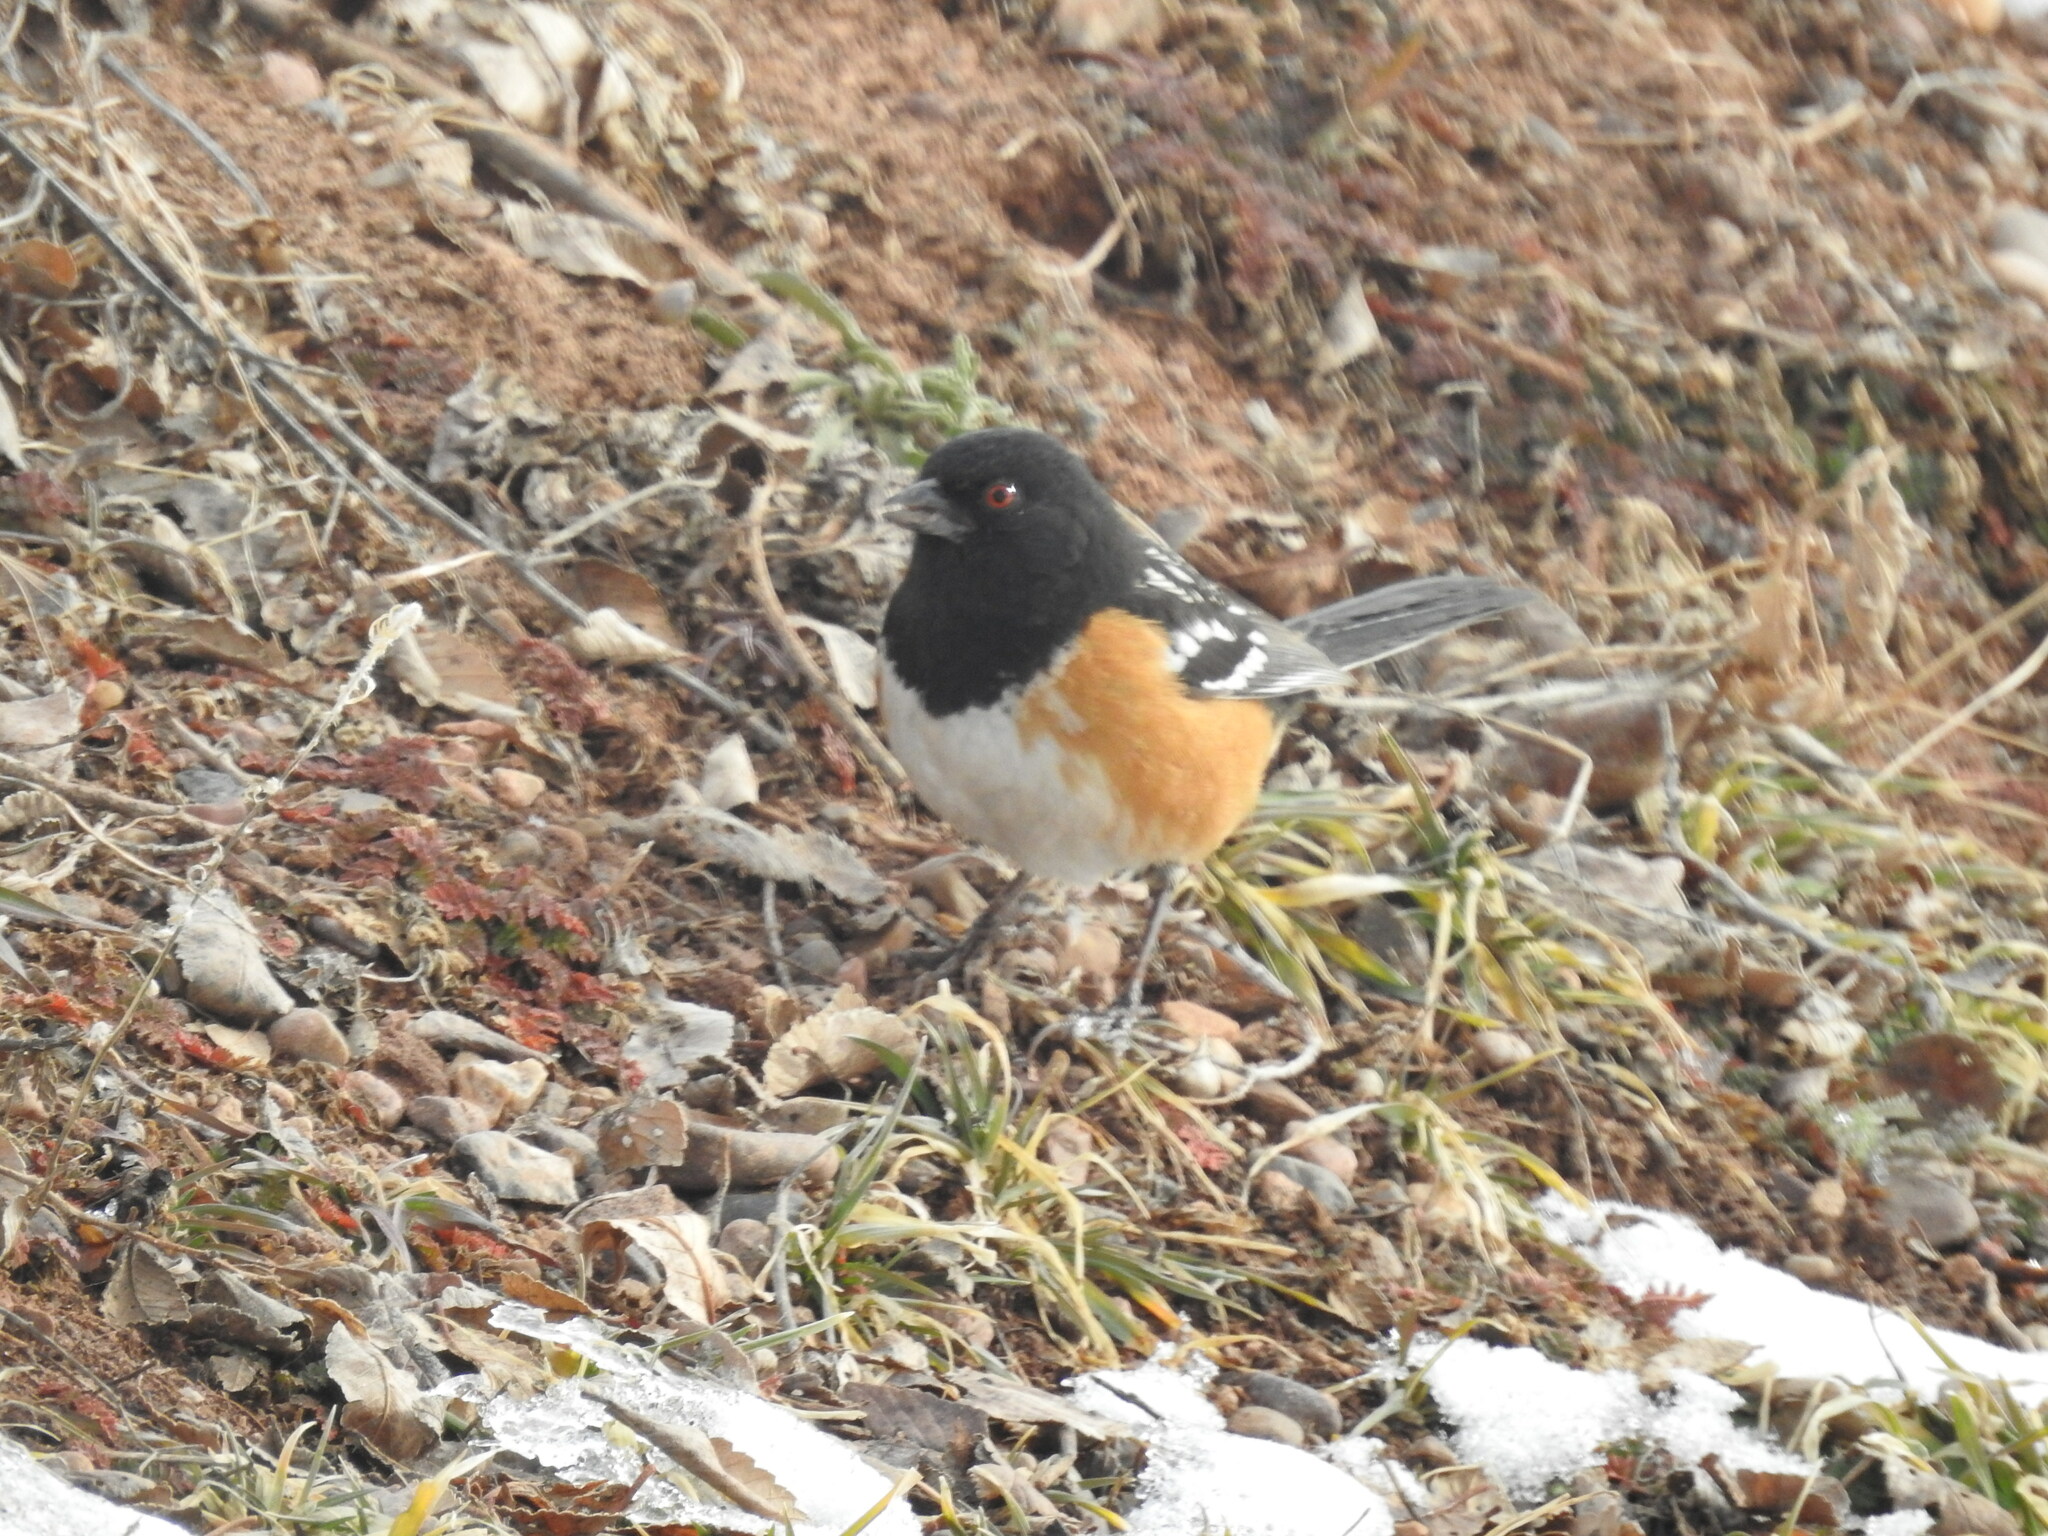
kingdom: Animalia
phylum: Chordata
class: Aves
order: Passeriformes
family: Passerellidae
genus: Pipilo
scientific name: Pipilo maculatus
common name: Spotted towhee
